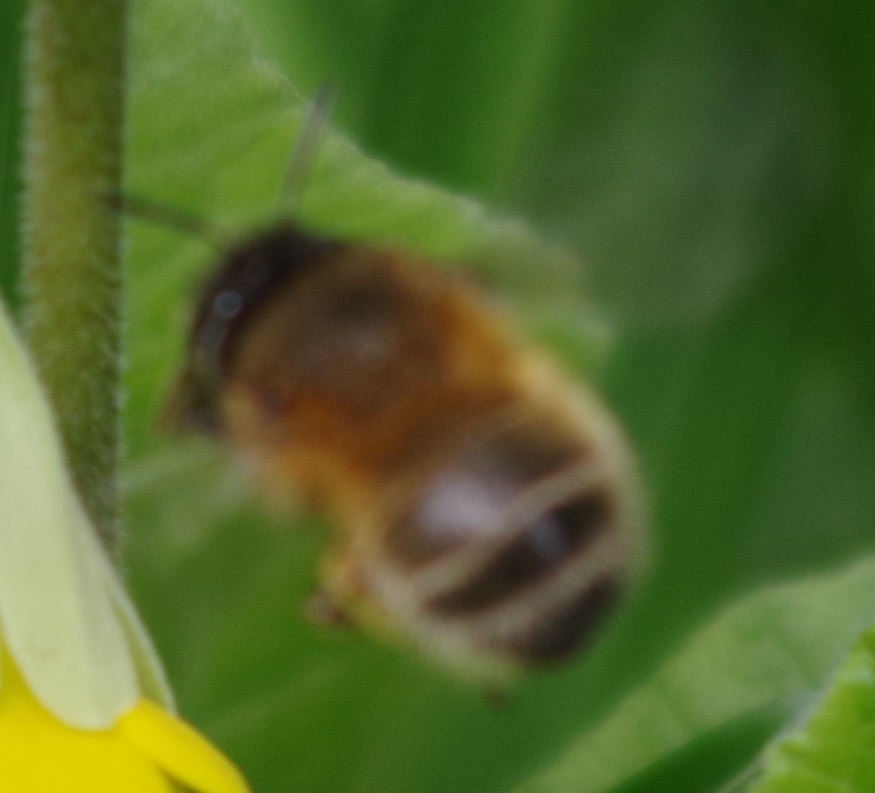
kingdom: Animalia
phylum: Arthropoda
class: Insecta
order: Hymenoptera
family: Apidae
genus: Anthophora
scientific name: Anthophora plumipes
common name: Hairy-footed flower bee
